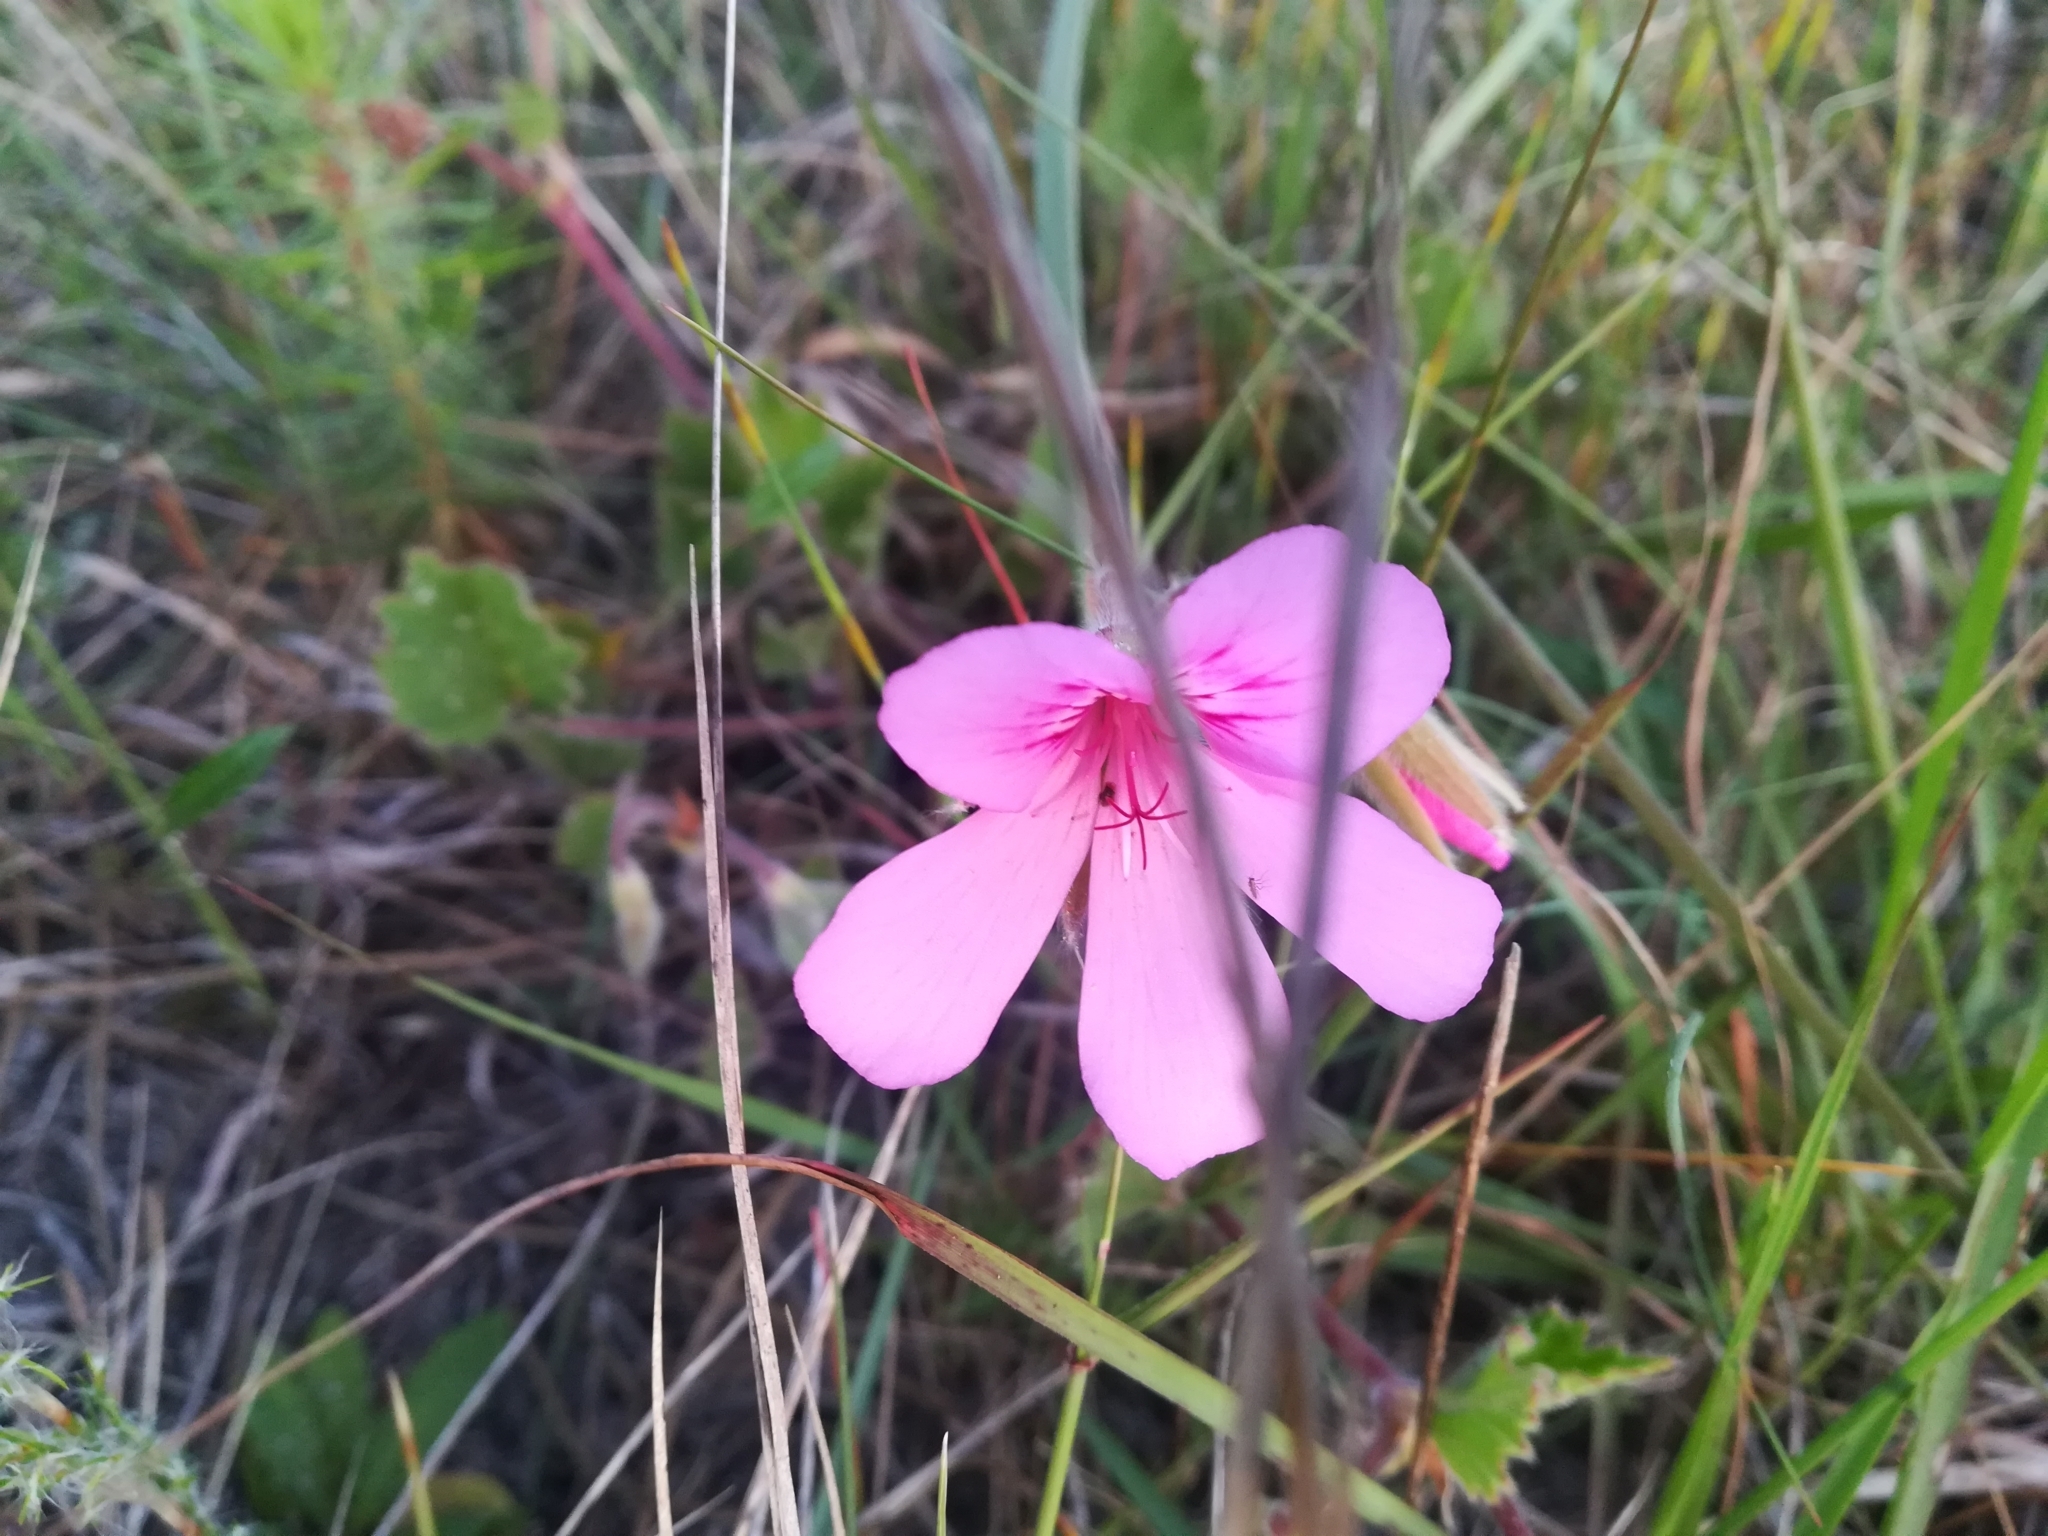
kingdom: Plantae
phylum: Tracheophyta
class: Magnoliopsida
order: Geraniales
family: Geraniaceae
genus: Pelargonium
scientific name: Pelargonium elegans
